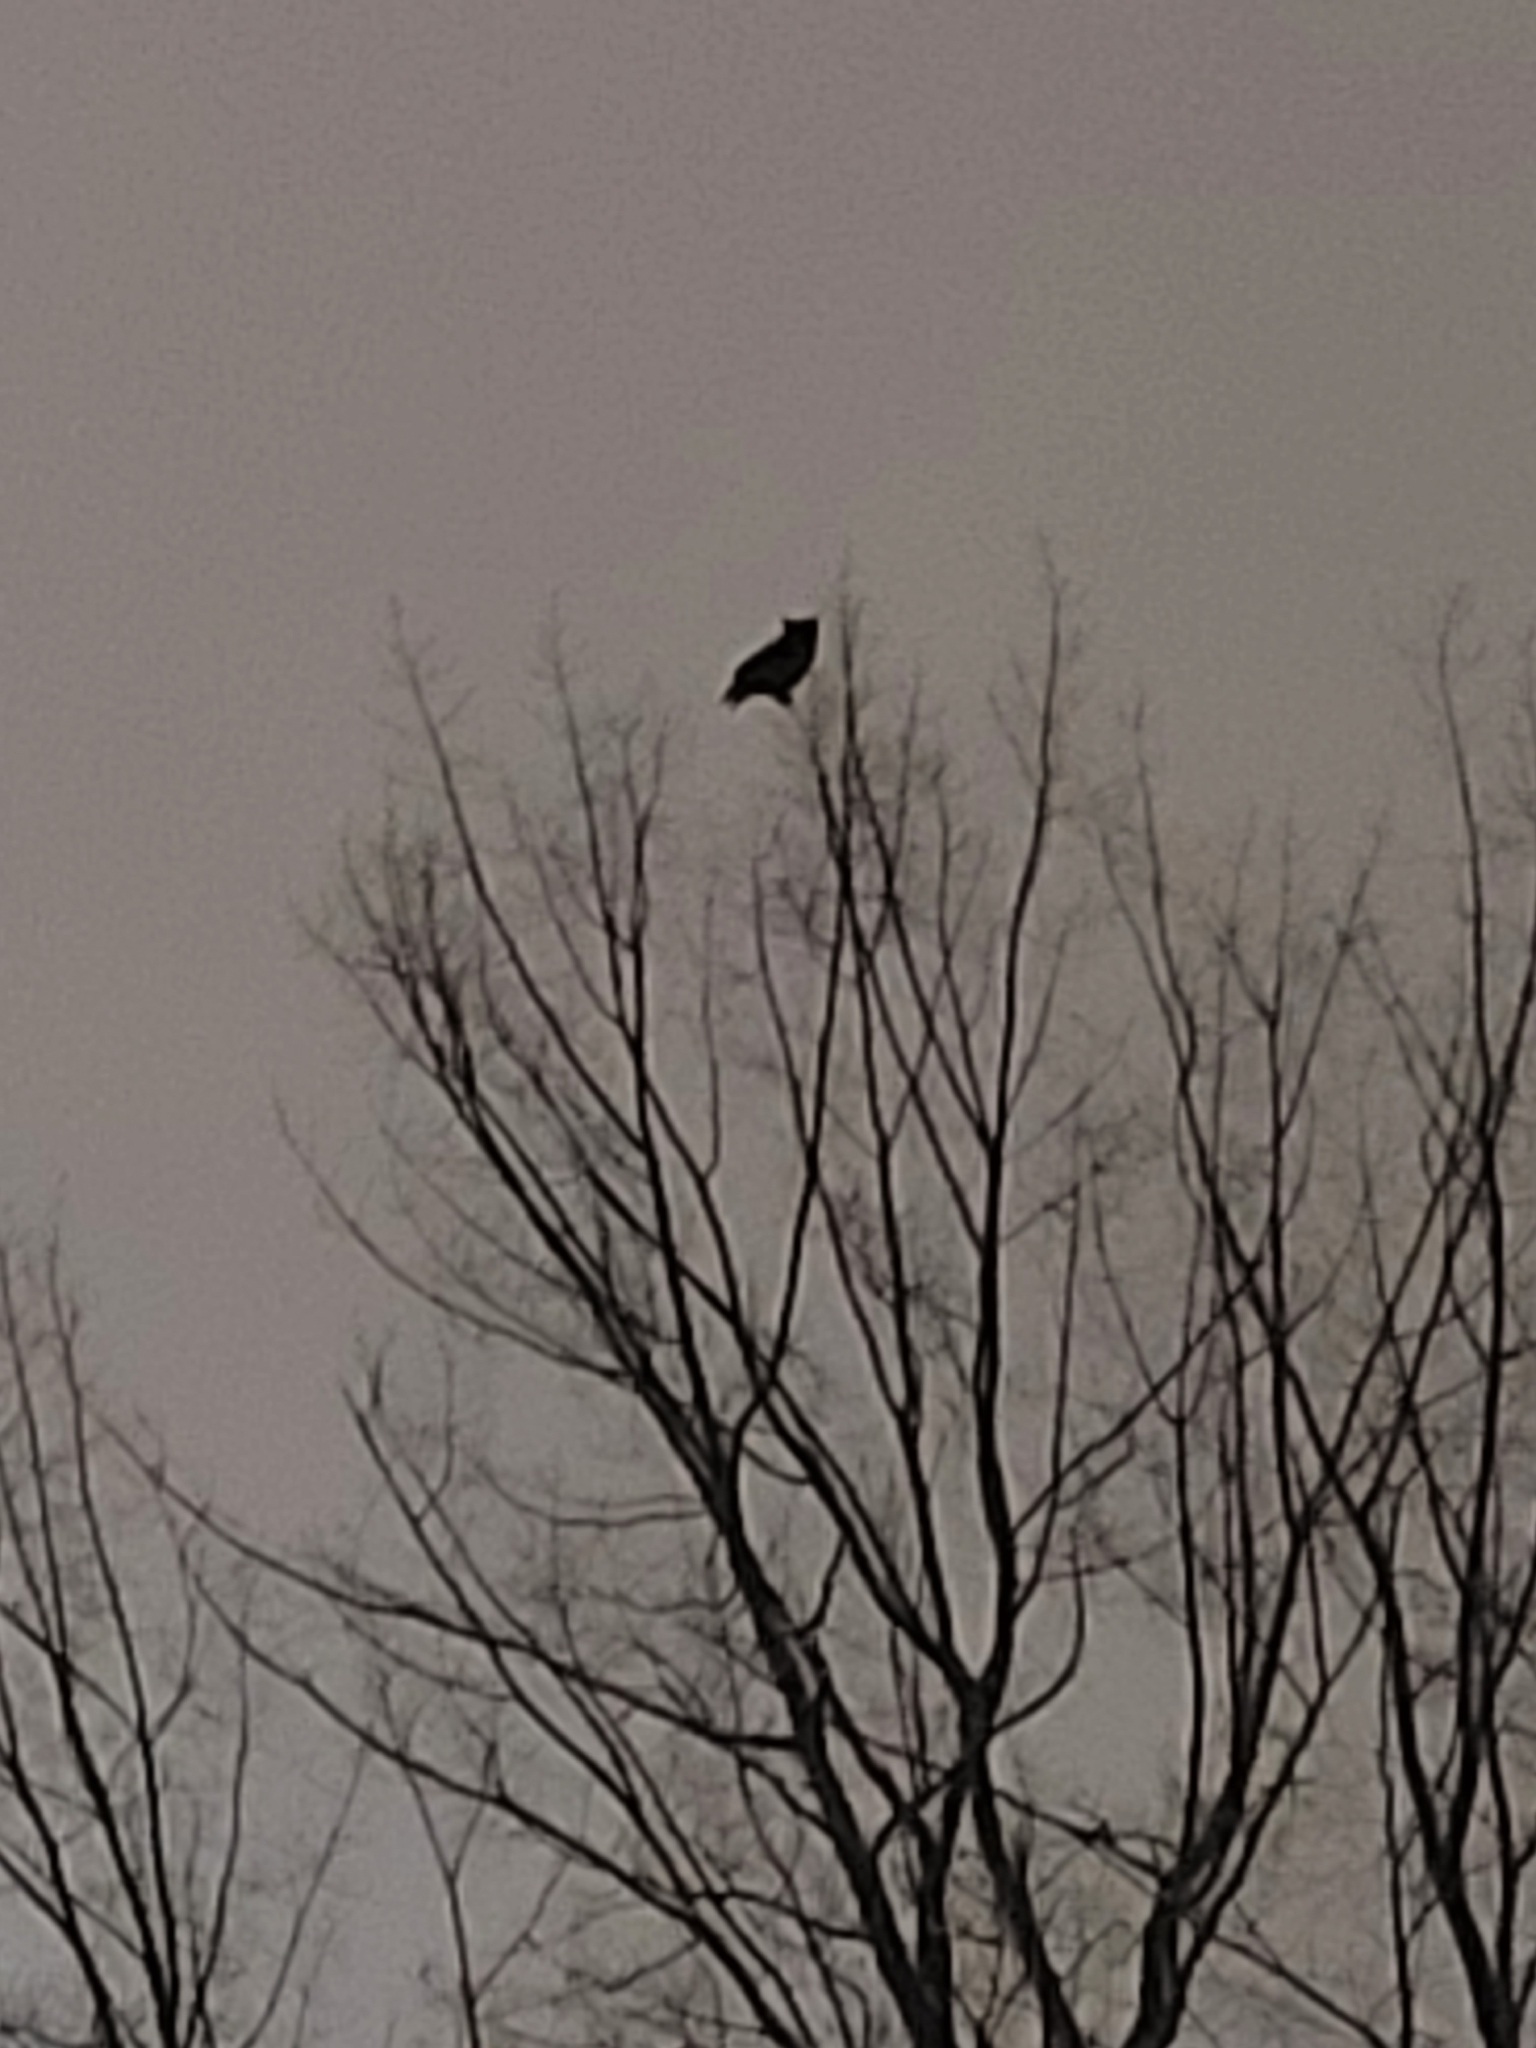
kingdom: Animalia
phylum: Chordata
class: Aves
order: Strigiformes
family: Strigidae
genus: Bubo
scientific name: Bubo virginianus
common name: Great horned owl
